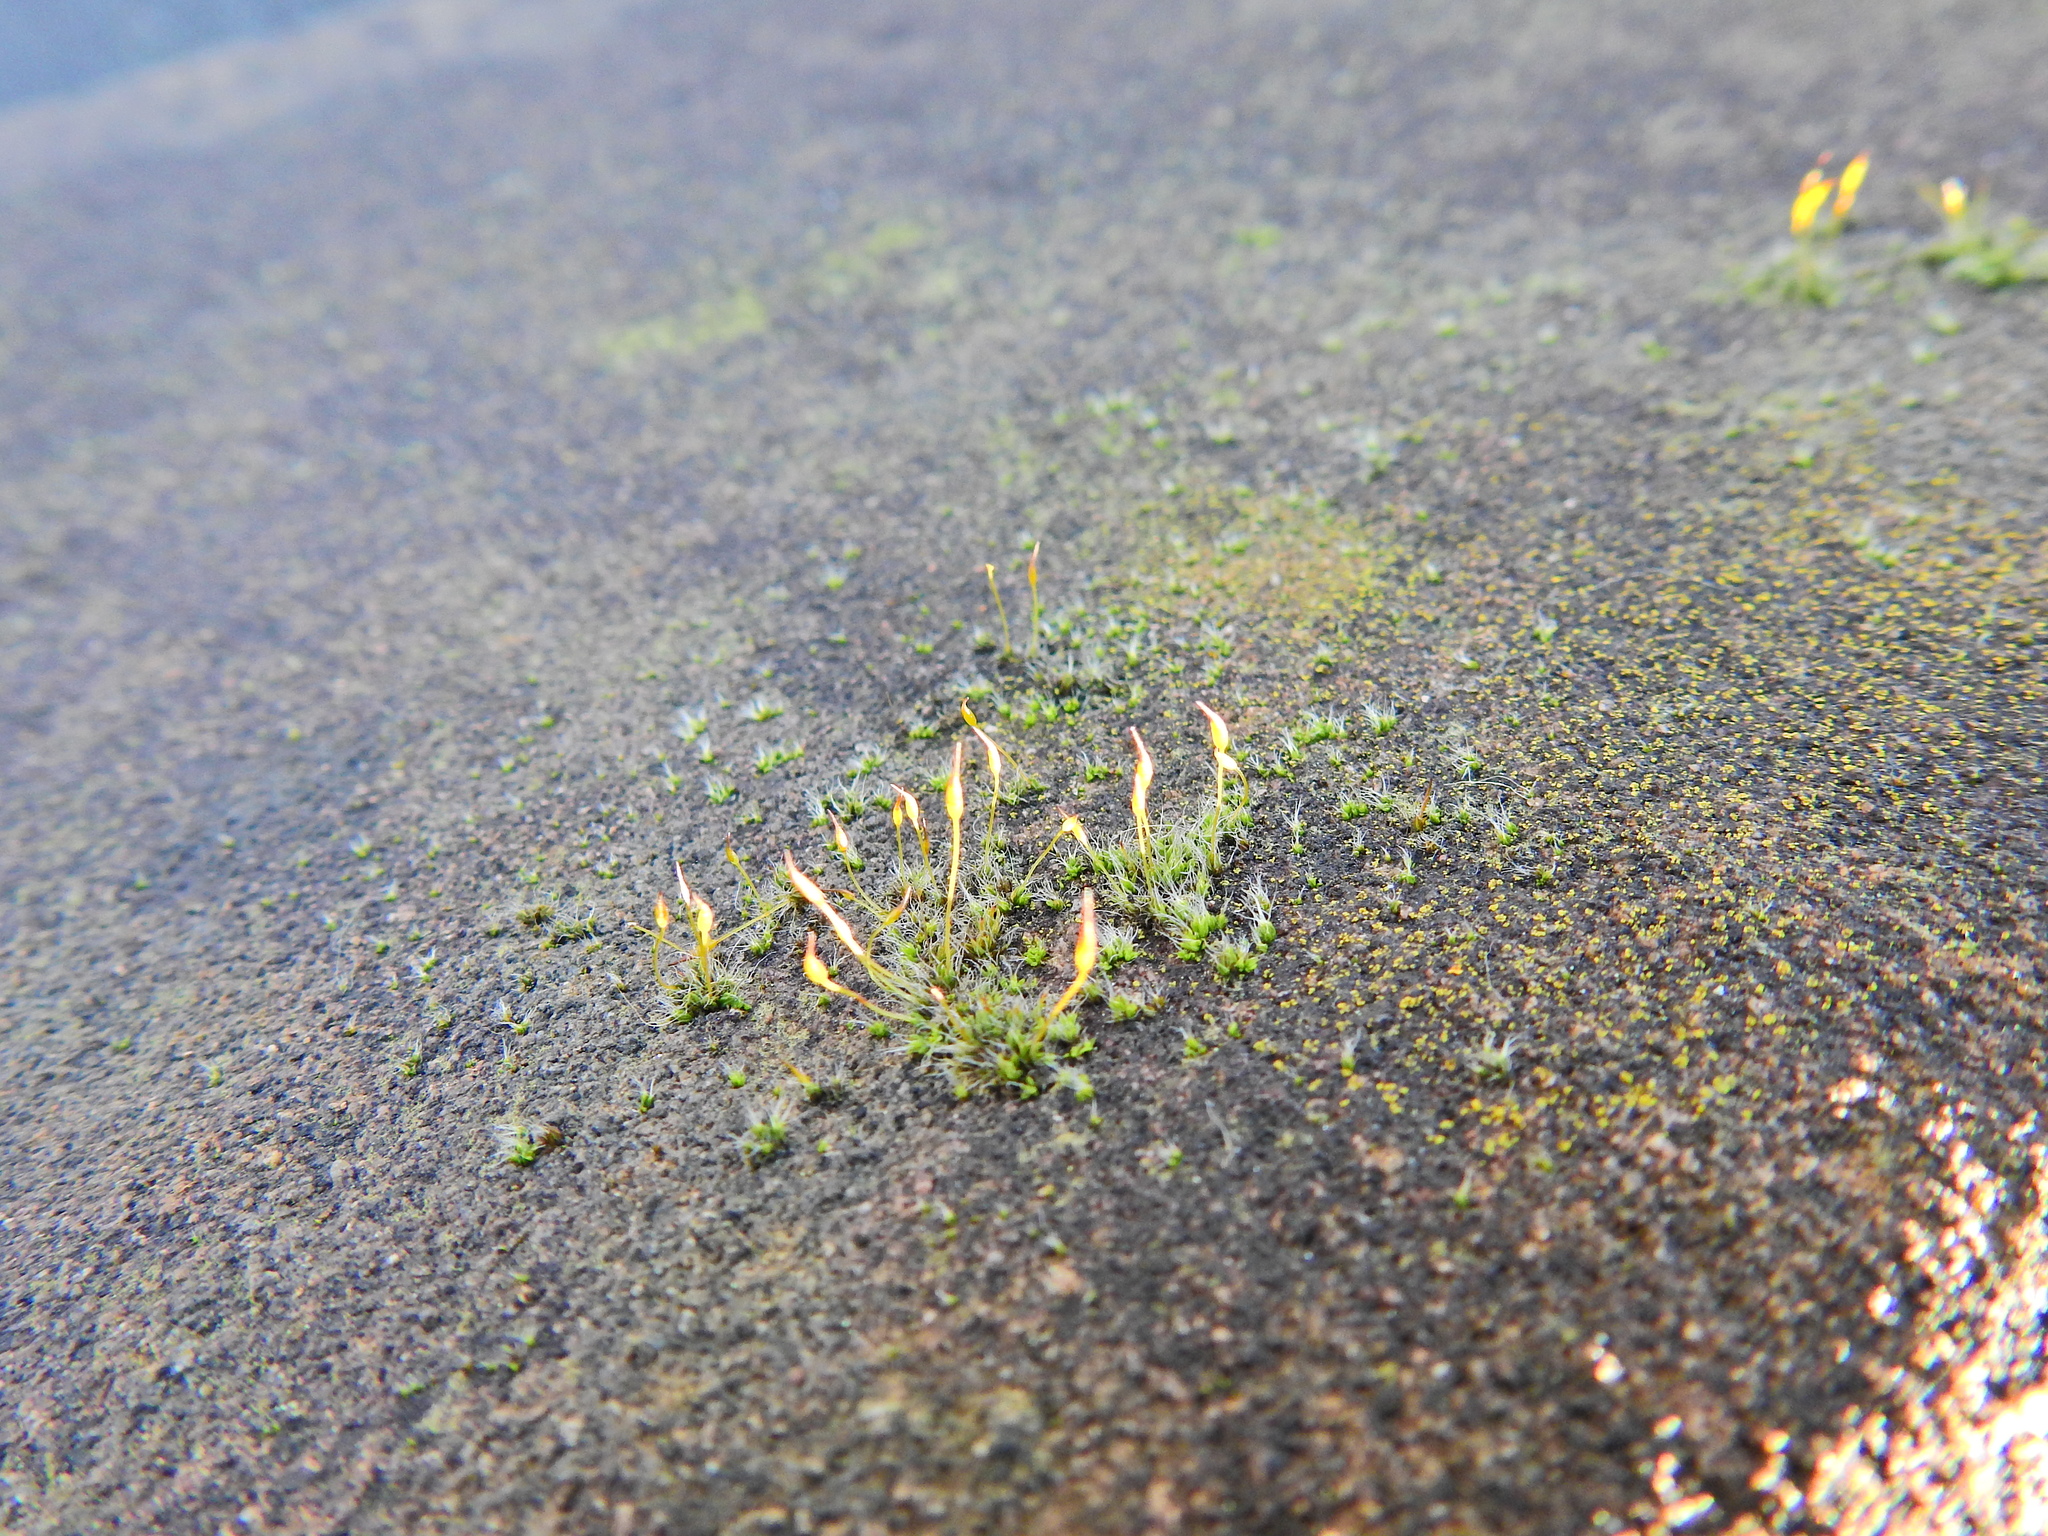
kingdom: Plantae
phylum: Bryophyta
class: Bryopsida
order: Pottiales
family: Pottiaceae
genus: Tortula
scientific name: Tortula muralis
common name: Wall screw-moss
